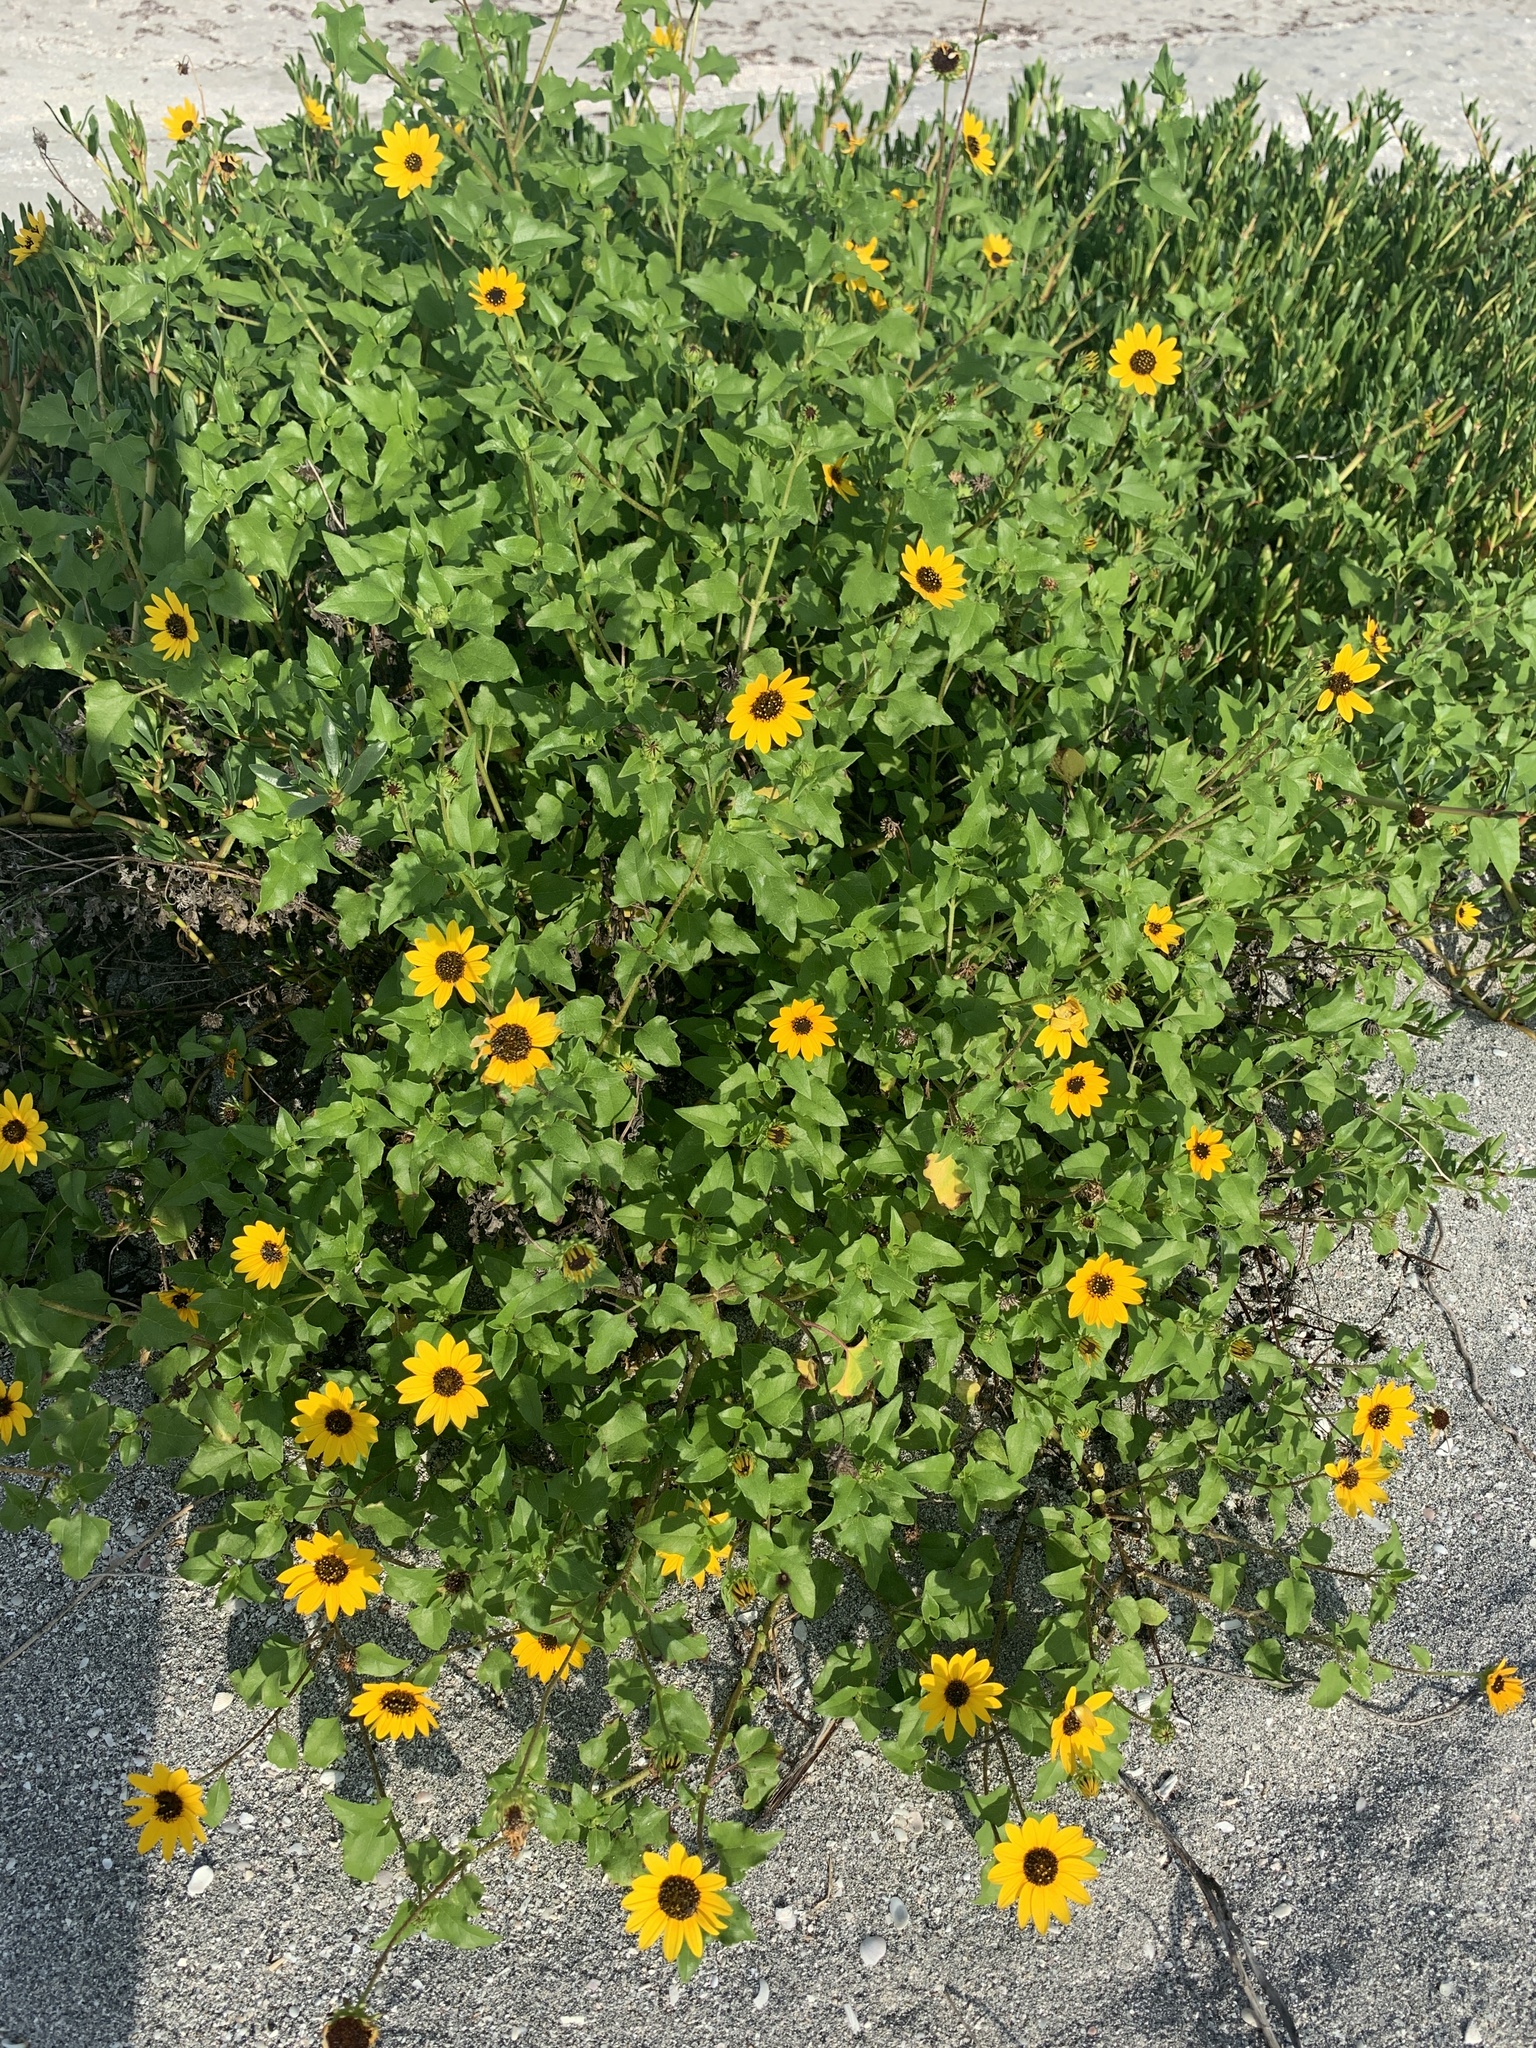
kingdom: Plantae
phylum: Tracheophyta
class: Magnoliopsida
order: Asterales
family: Asteraceae
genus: Helianthus
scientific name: Helianthus debilis
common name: Weak sunflower
